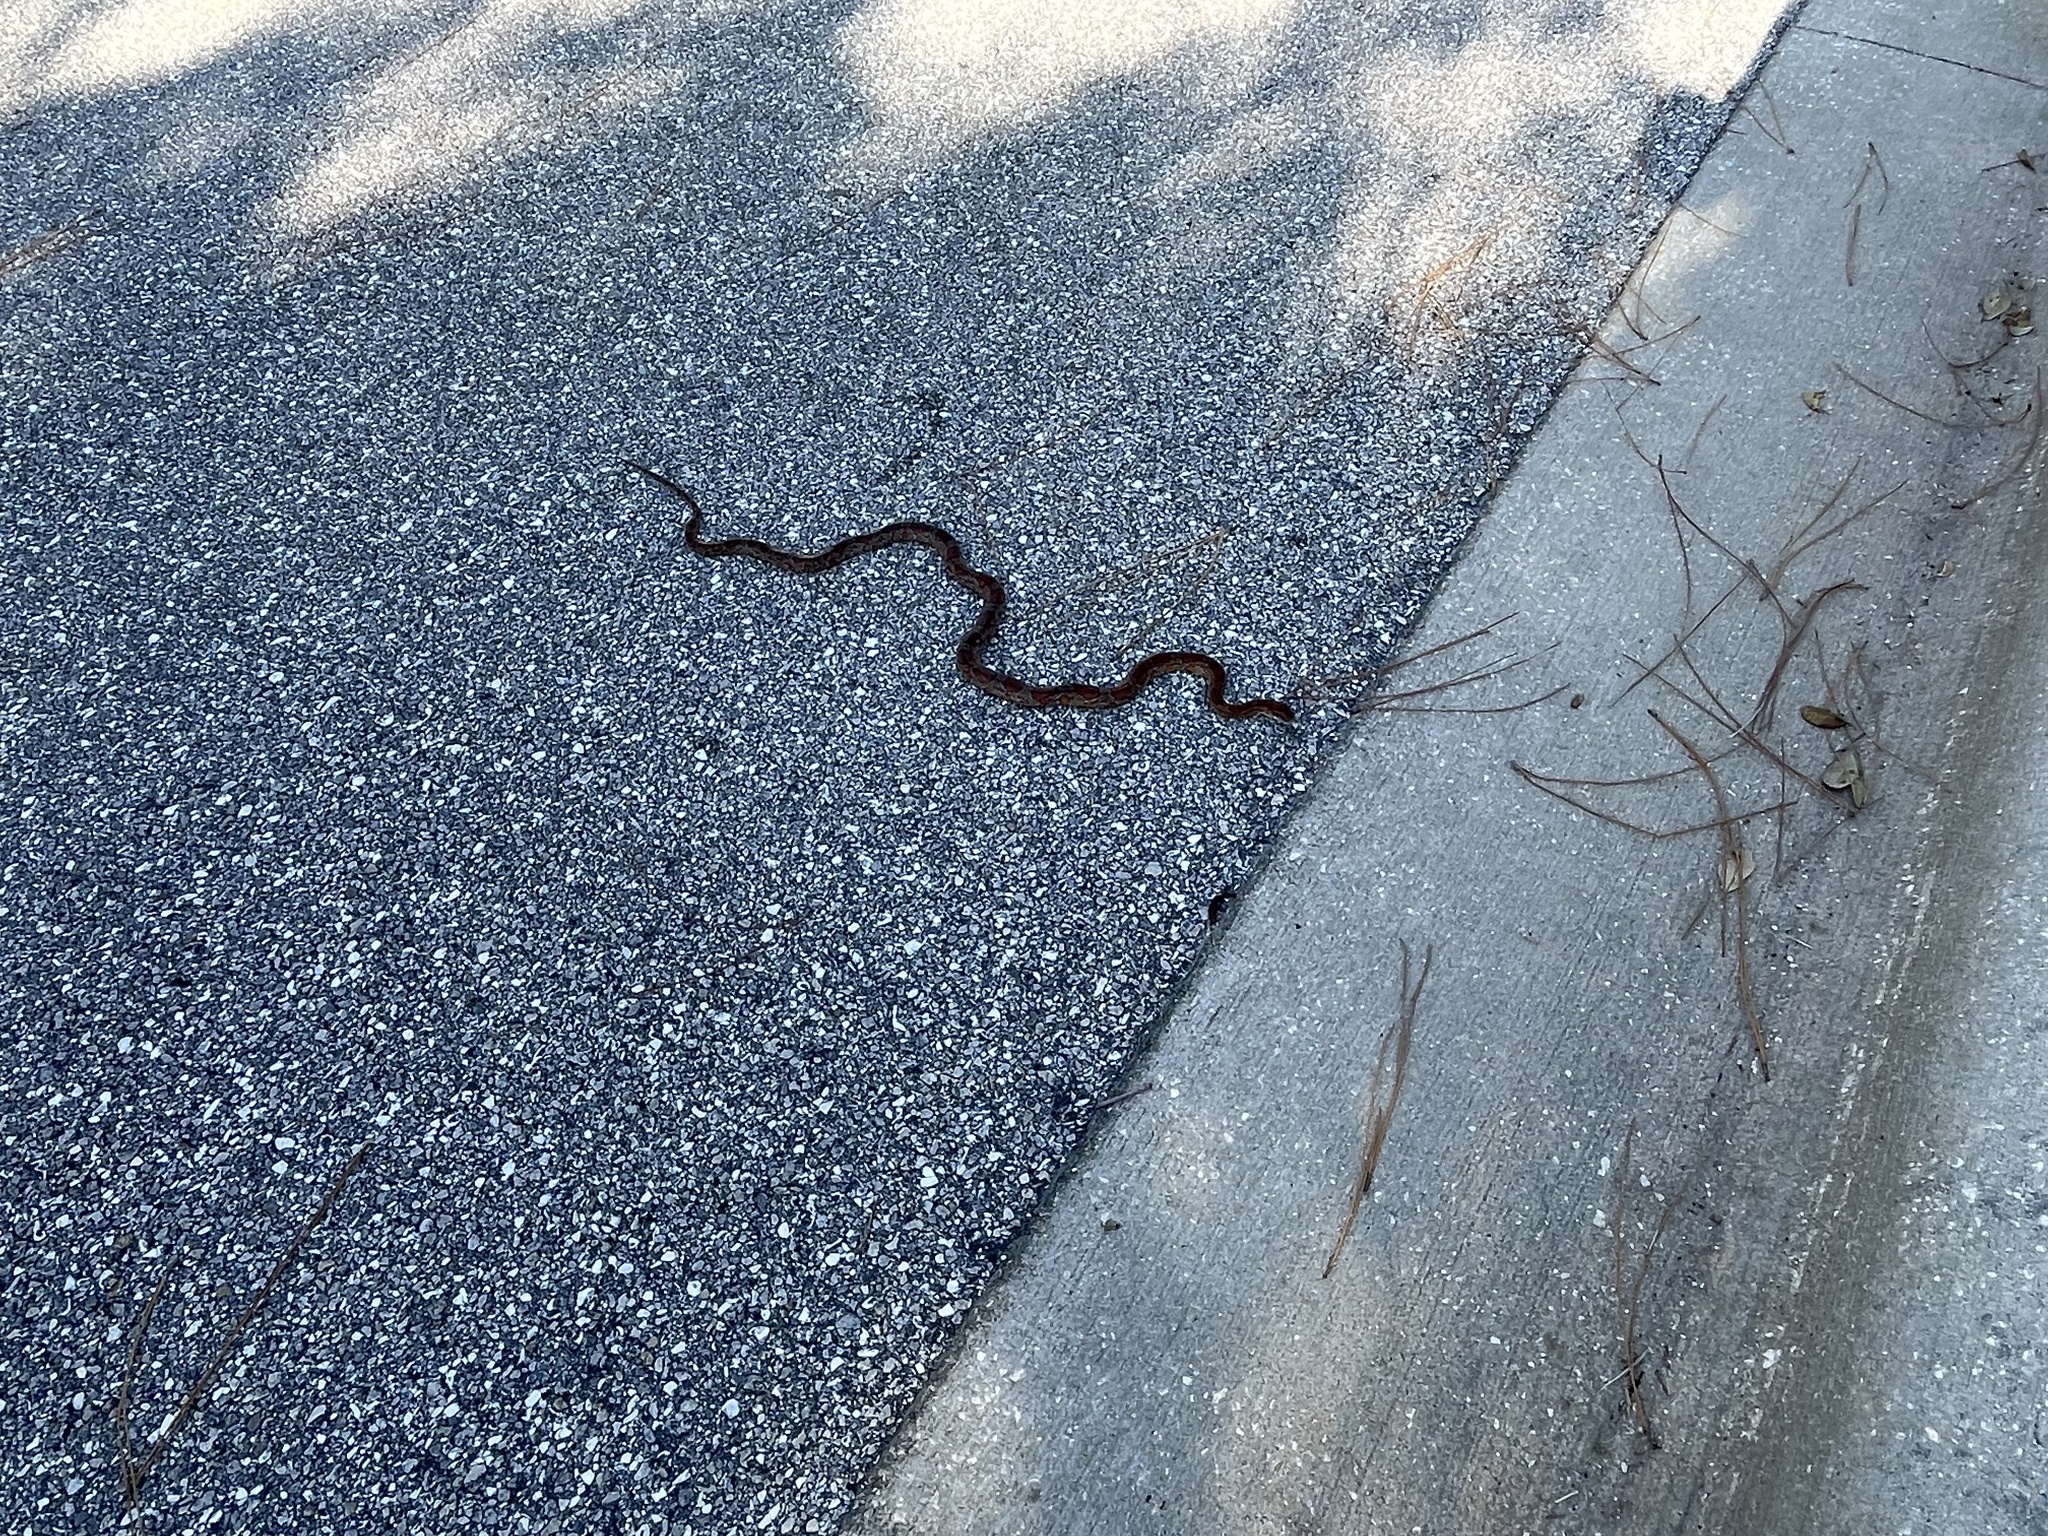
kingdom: Animalia
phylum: Chordata
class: Squamata
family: Colubridae
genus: Pantherophis
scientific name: Pantherophis guttatus
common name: Red cornsnake
